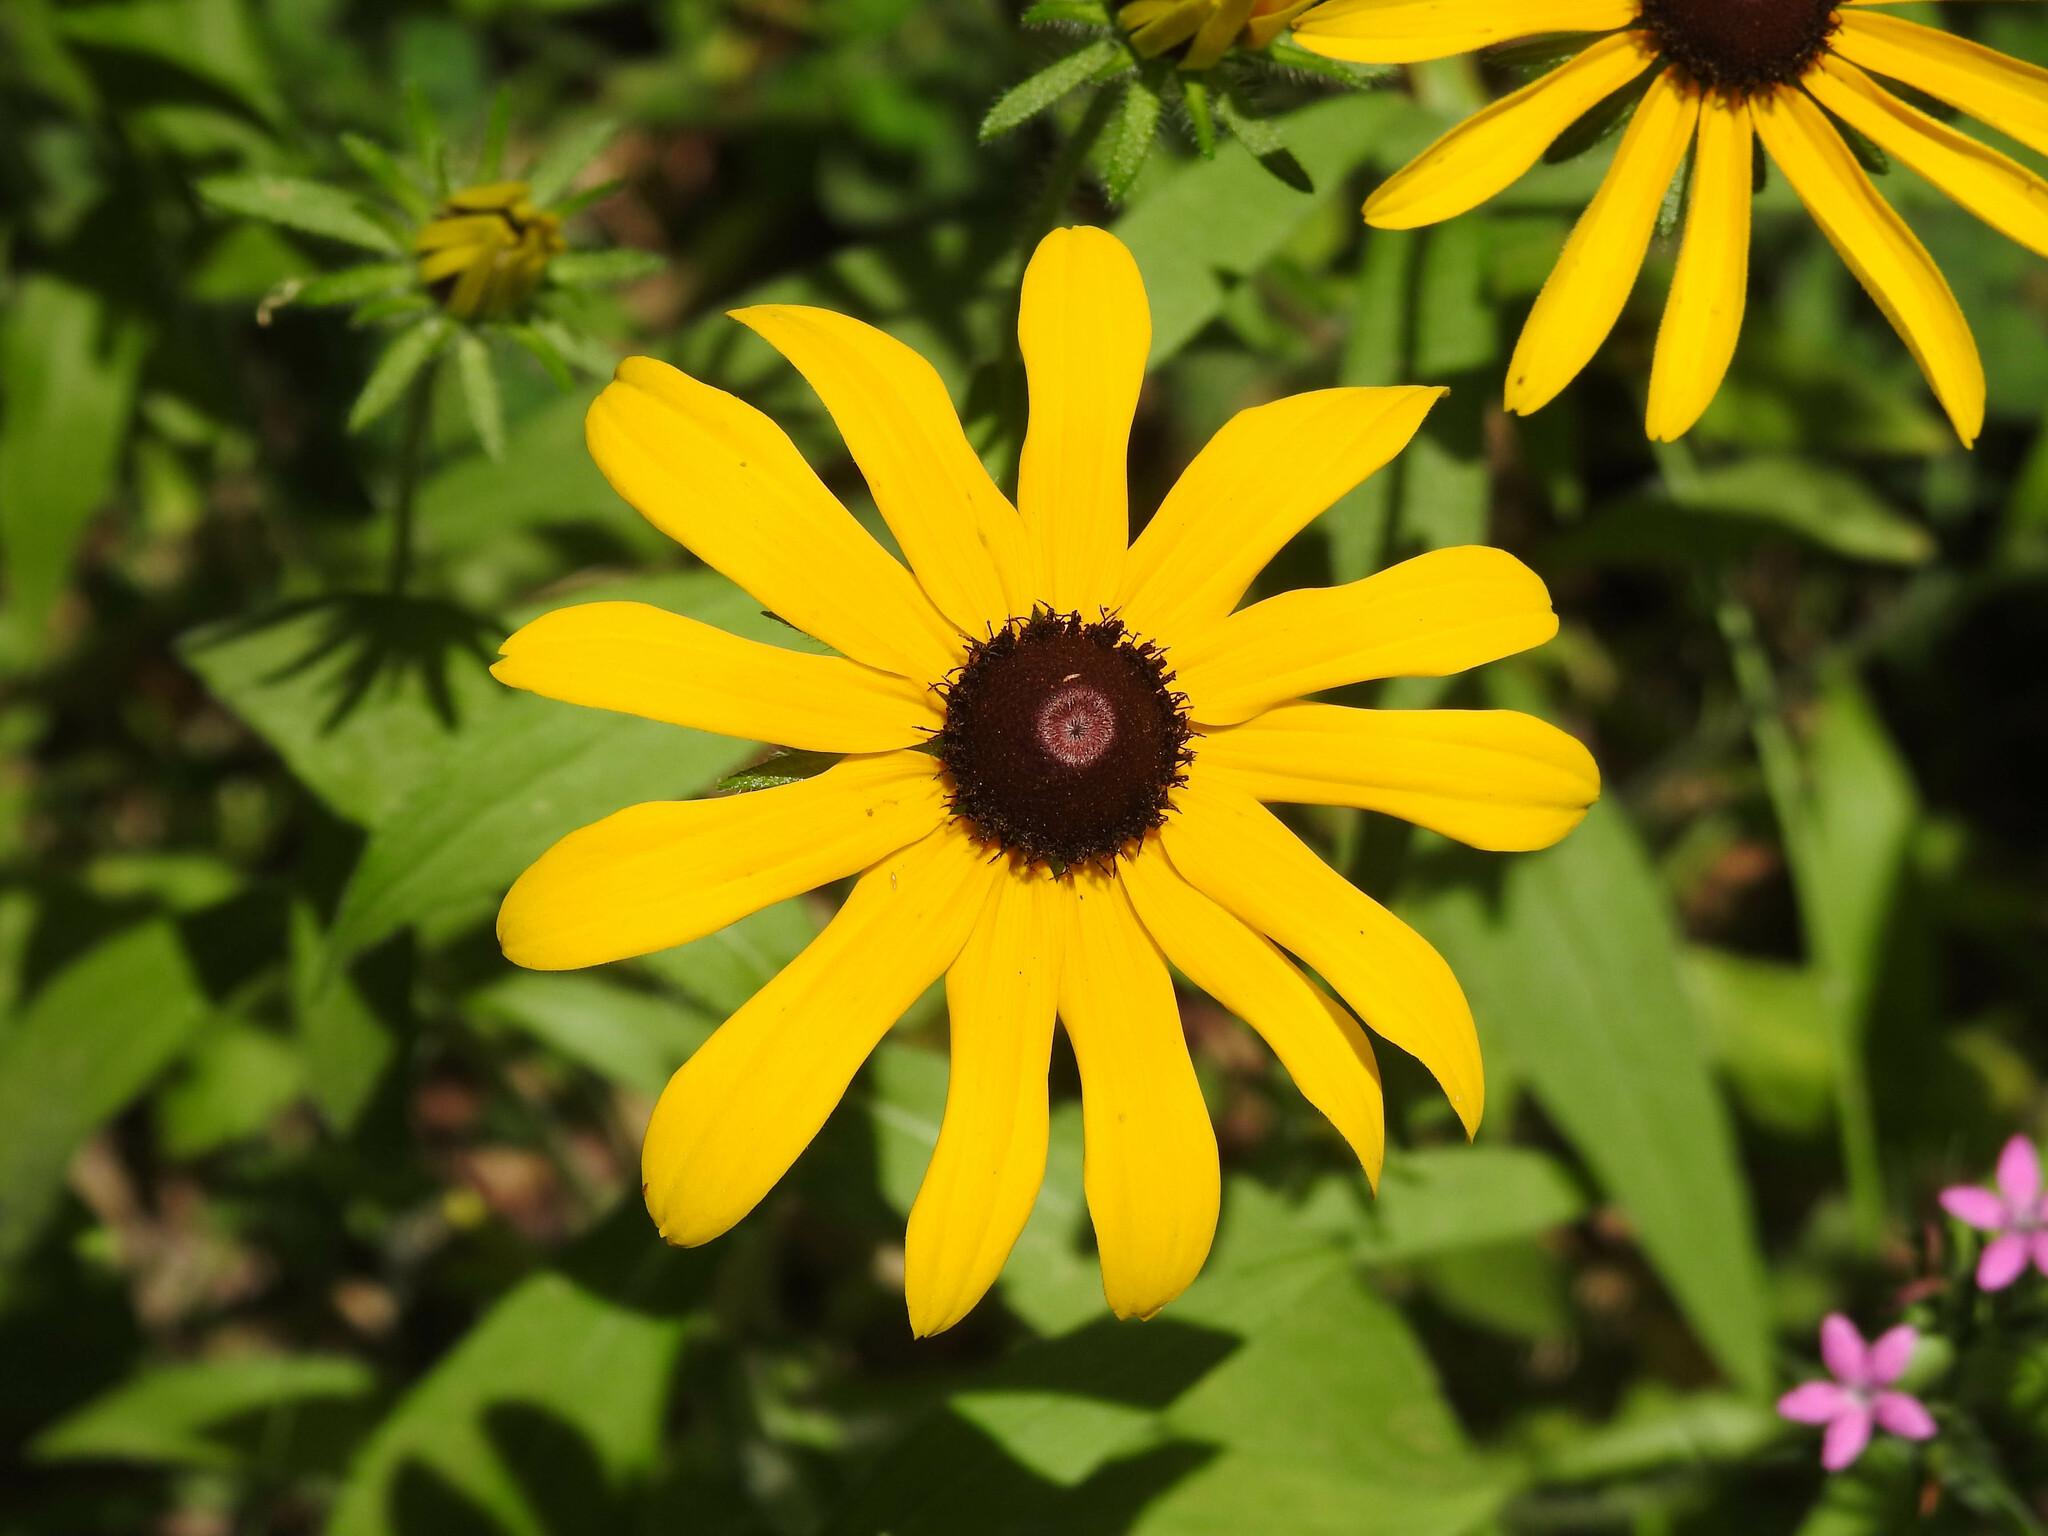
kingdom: Plantae
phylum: Tracheophyta
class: Magnoliopsida
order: Asterales
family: Asteraceae
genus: Rudbeckia
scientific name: Rudbeckia hirta
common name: Black-eyed-susan
